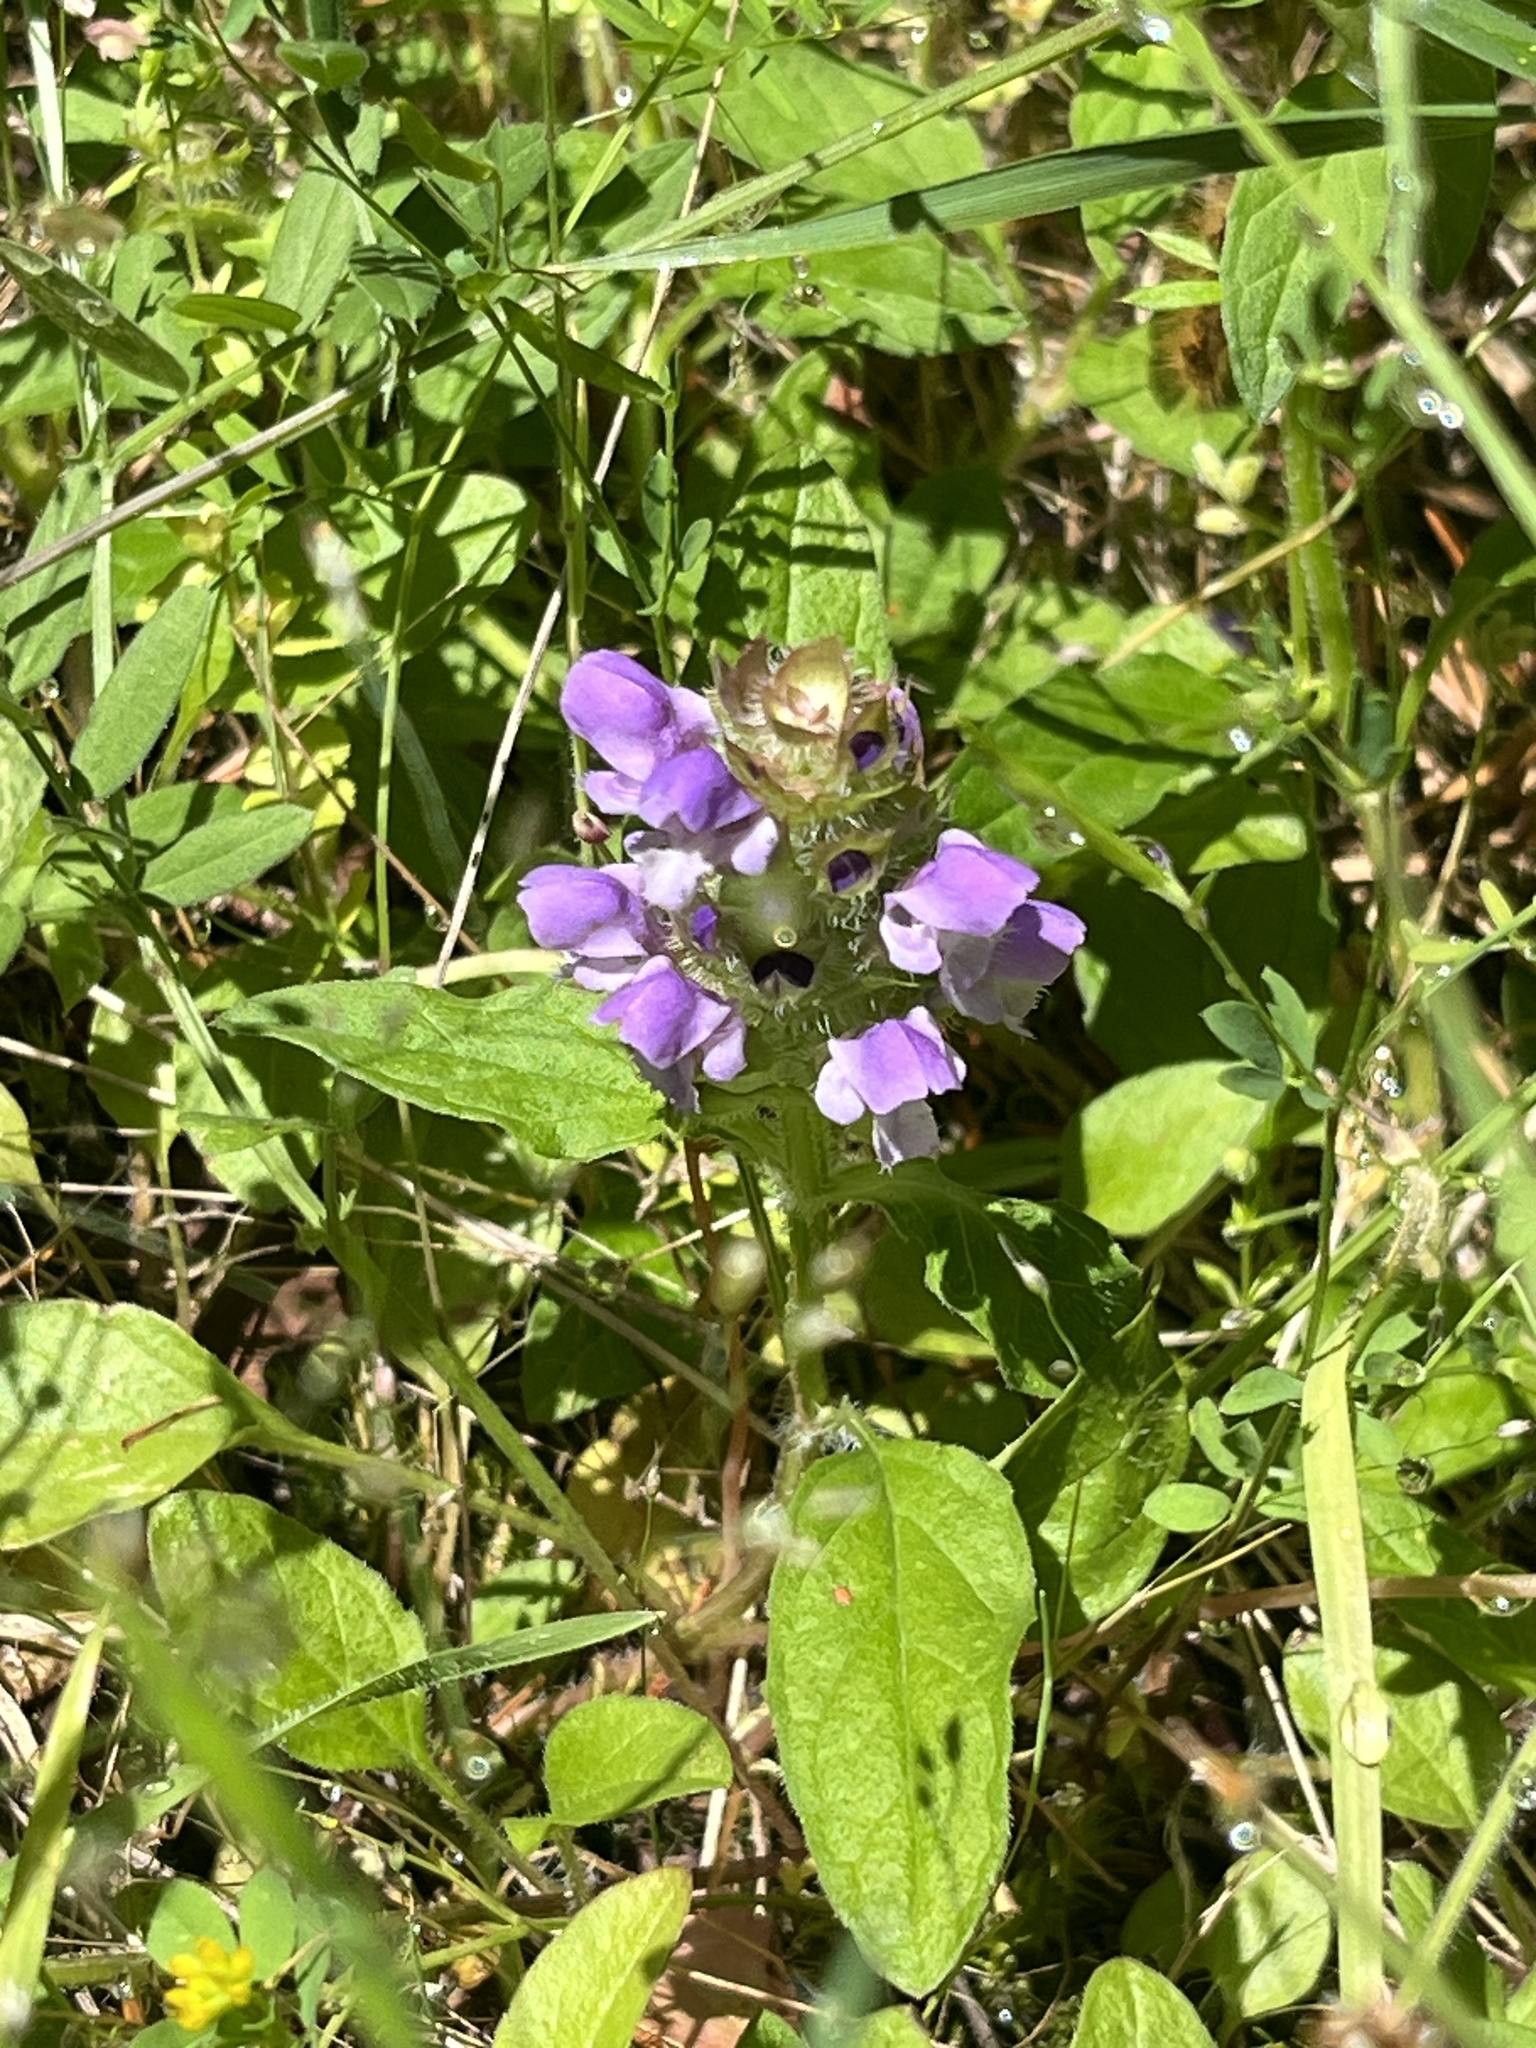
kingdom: Plantae
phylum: Tracheophyta
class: Magnoliopsida
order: Lamiales
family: Lamiaceae
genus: Prunella
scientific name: Prunella vulgaris
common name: Heal-all
